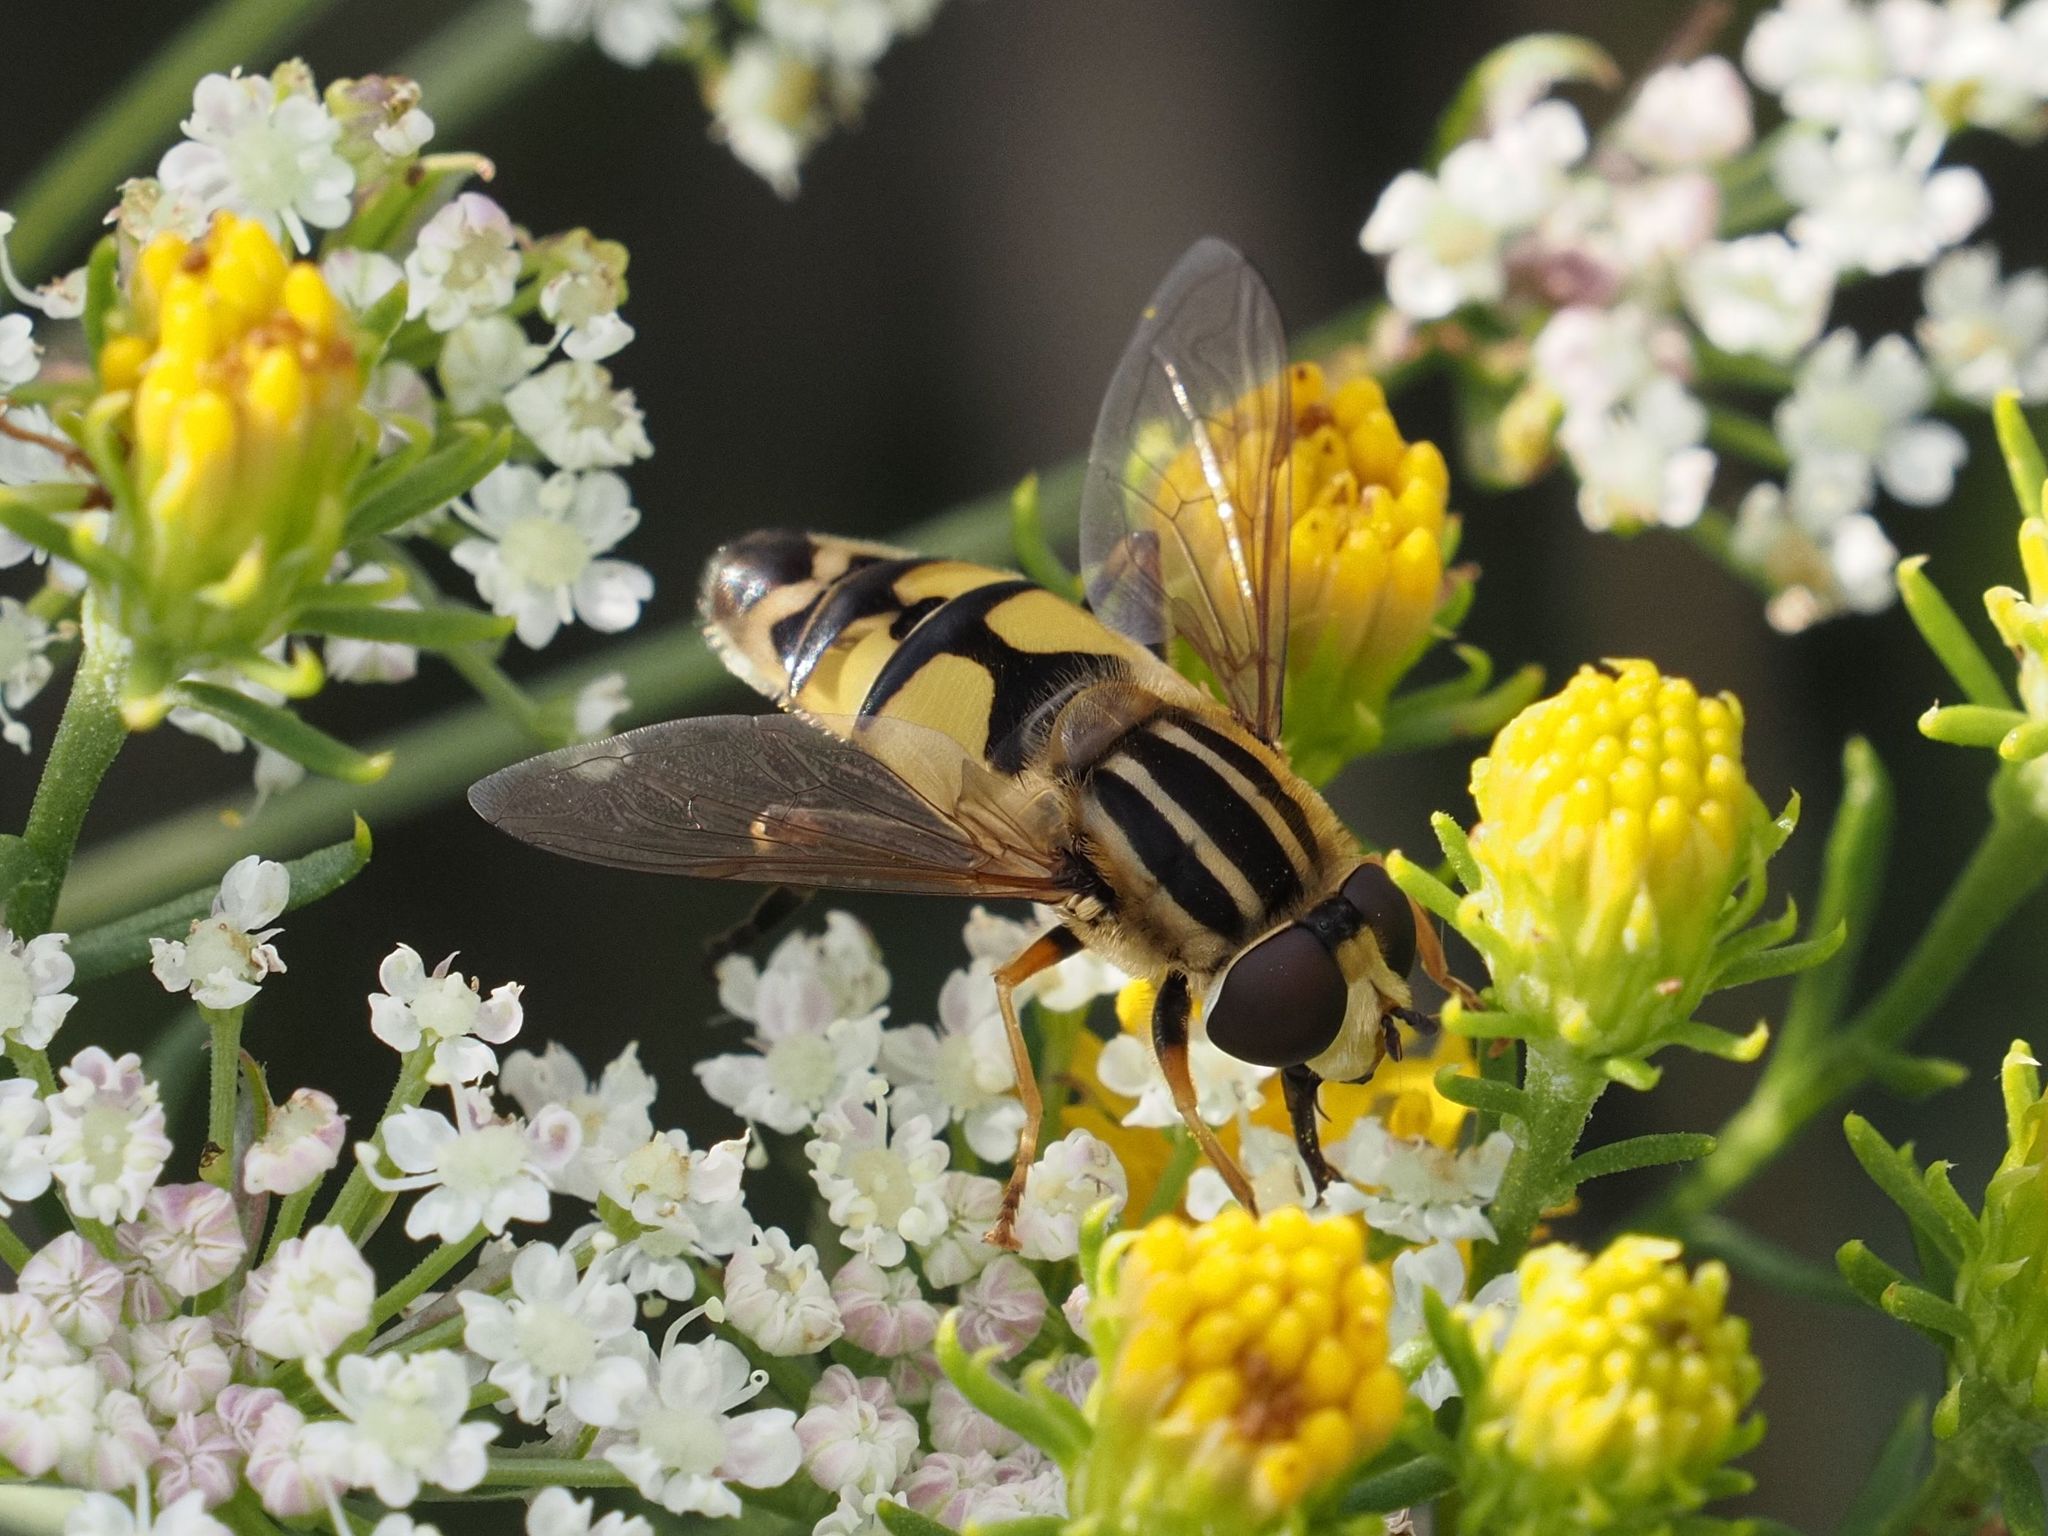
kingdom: Animalia
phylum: Arthropoda
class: Insecta
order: Diptera
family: Syrphidae
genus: Helophilus
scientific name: Helophilus trivittatus
